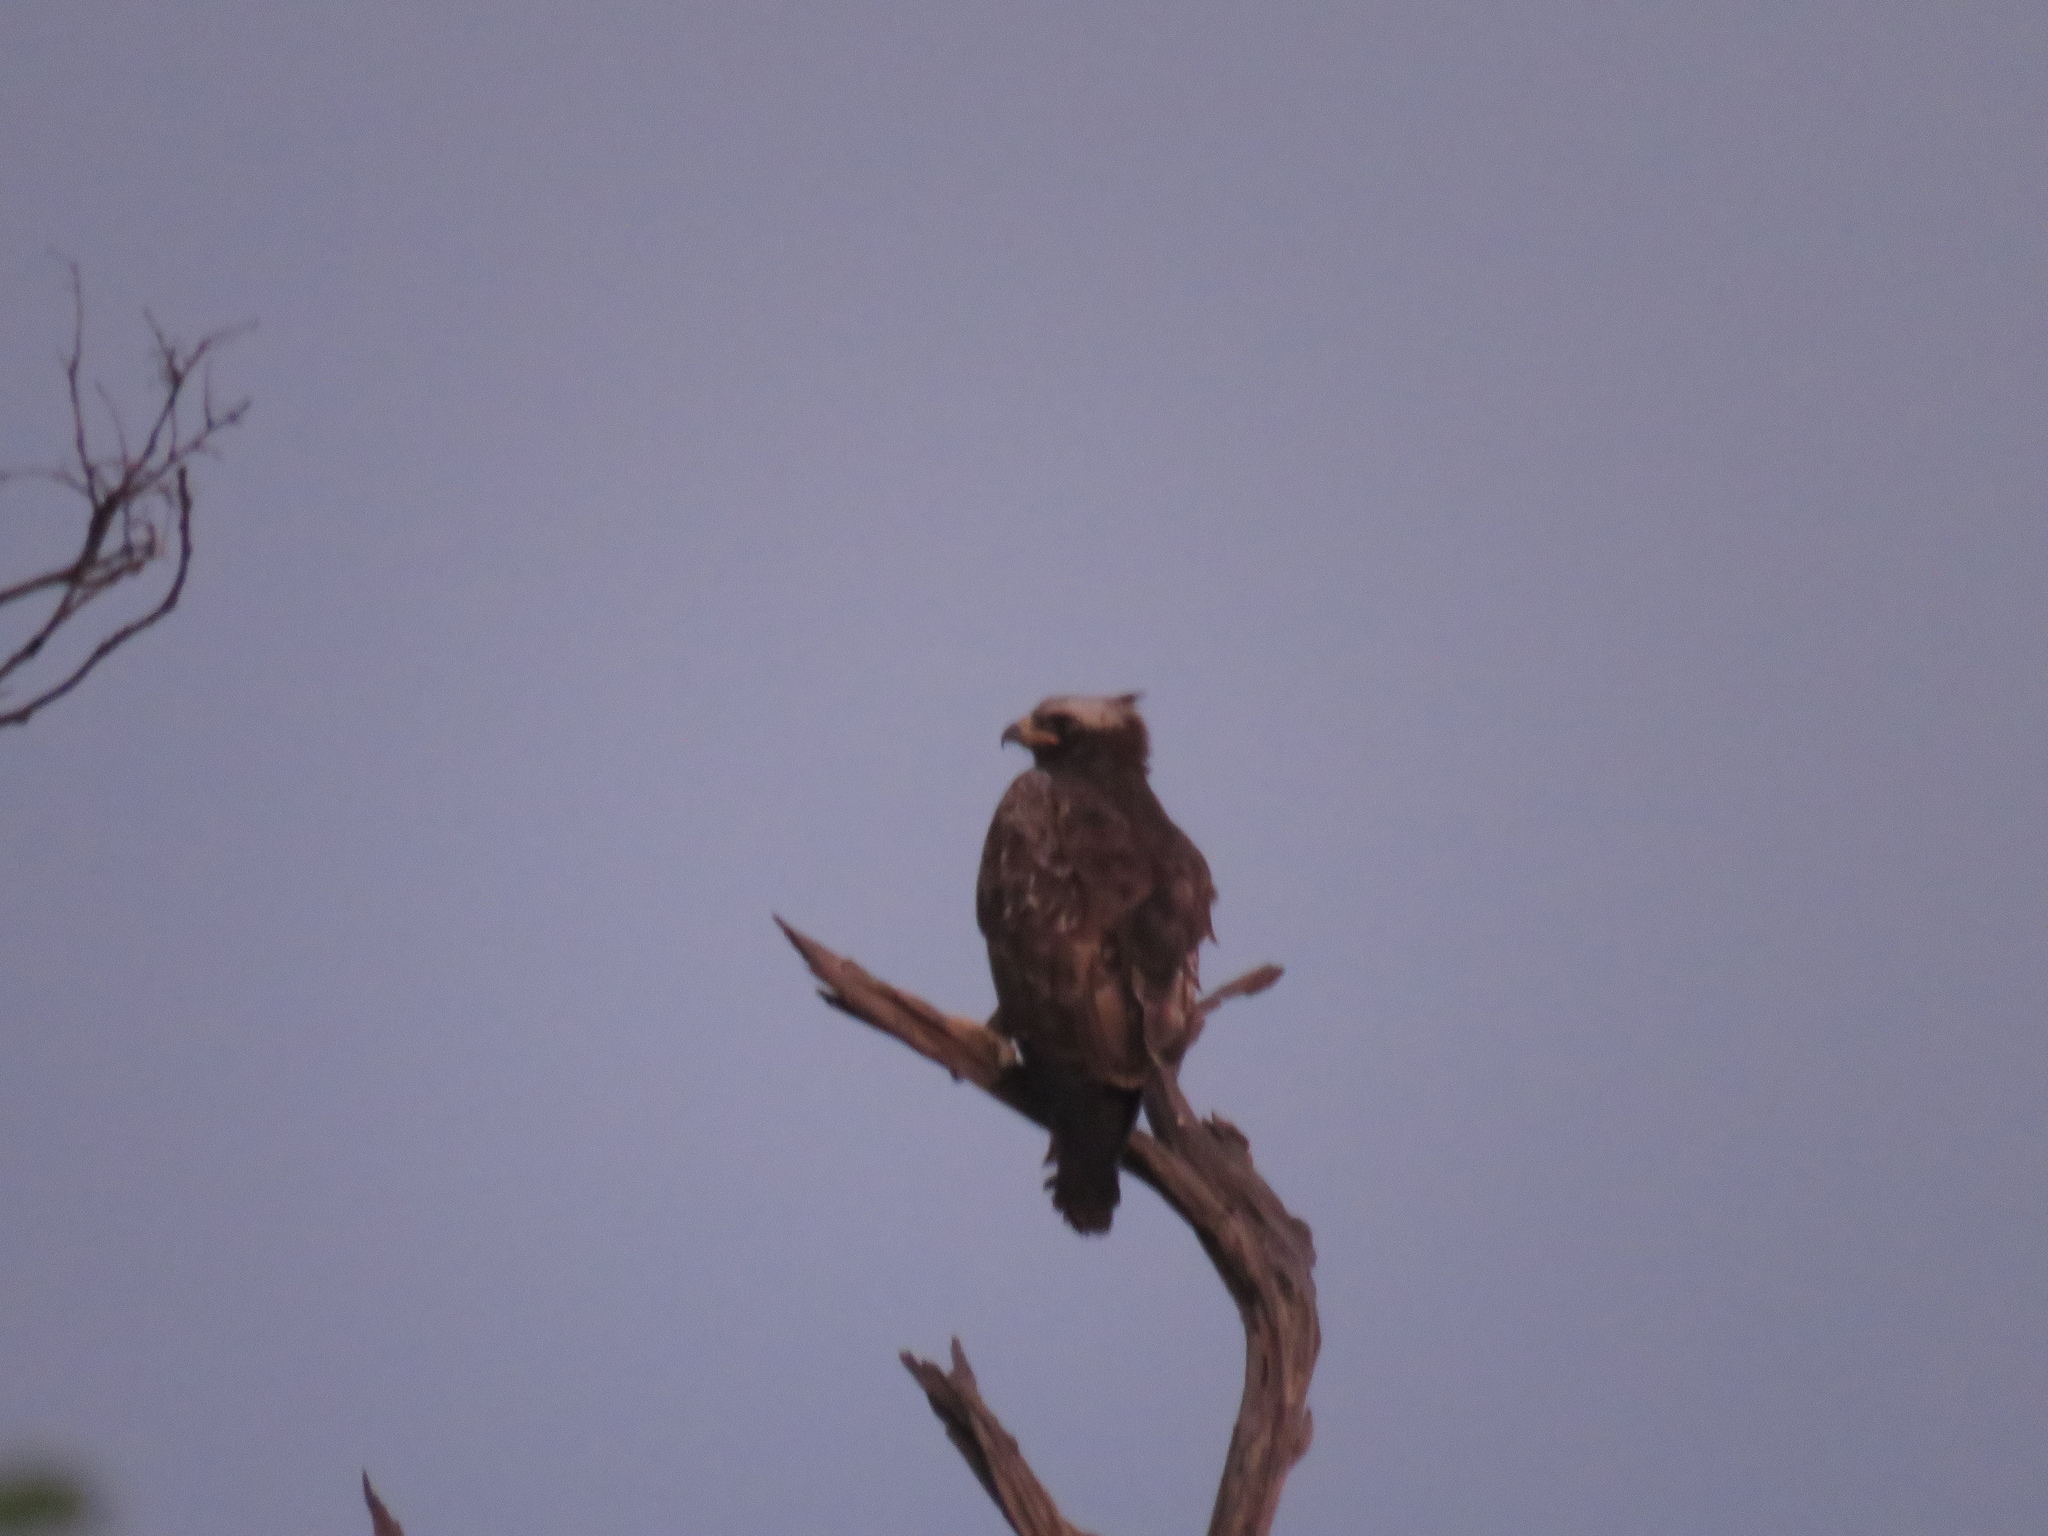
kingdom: Animalia
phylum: Chordata
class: Aves
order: Accipitriformes
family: Accipitridae
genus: Hieraaetus
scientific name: Hieraaetus wahlbergi
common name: Wahlberg's eagle
